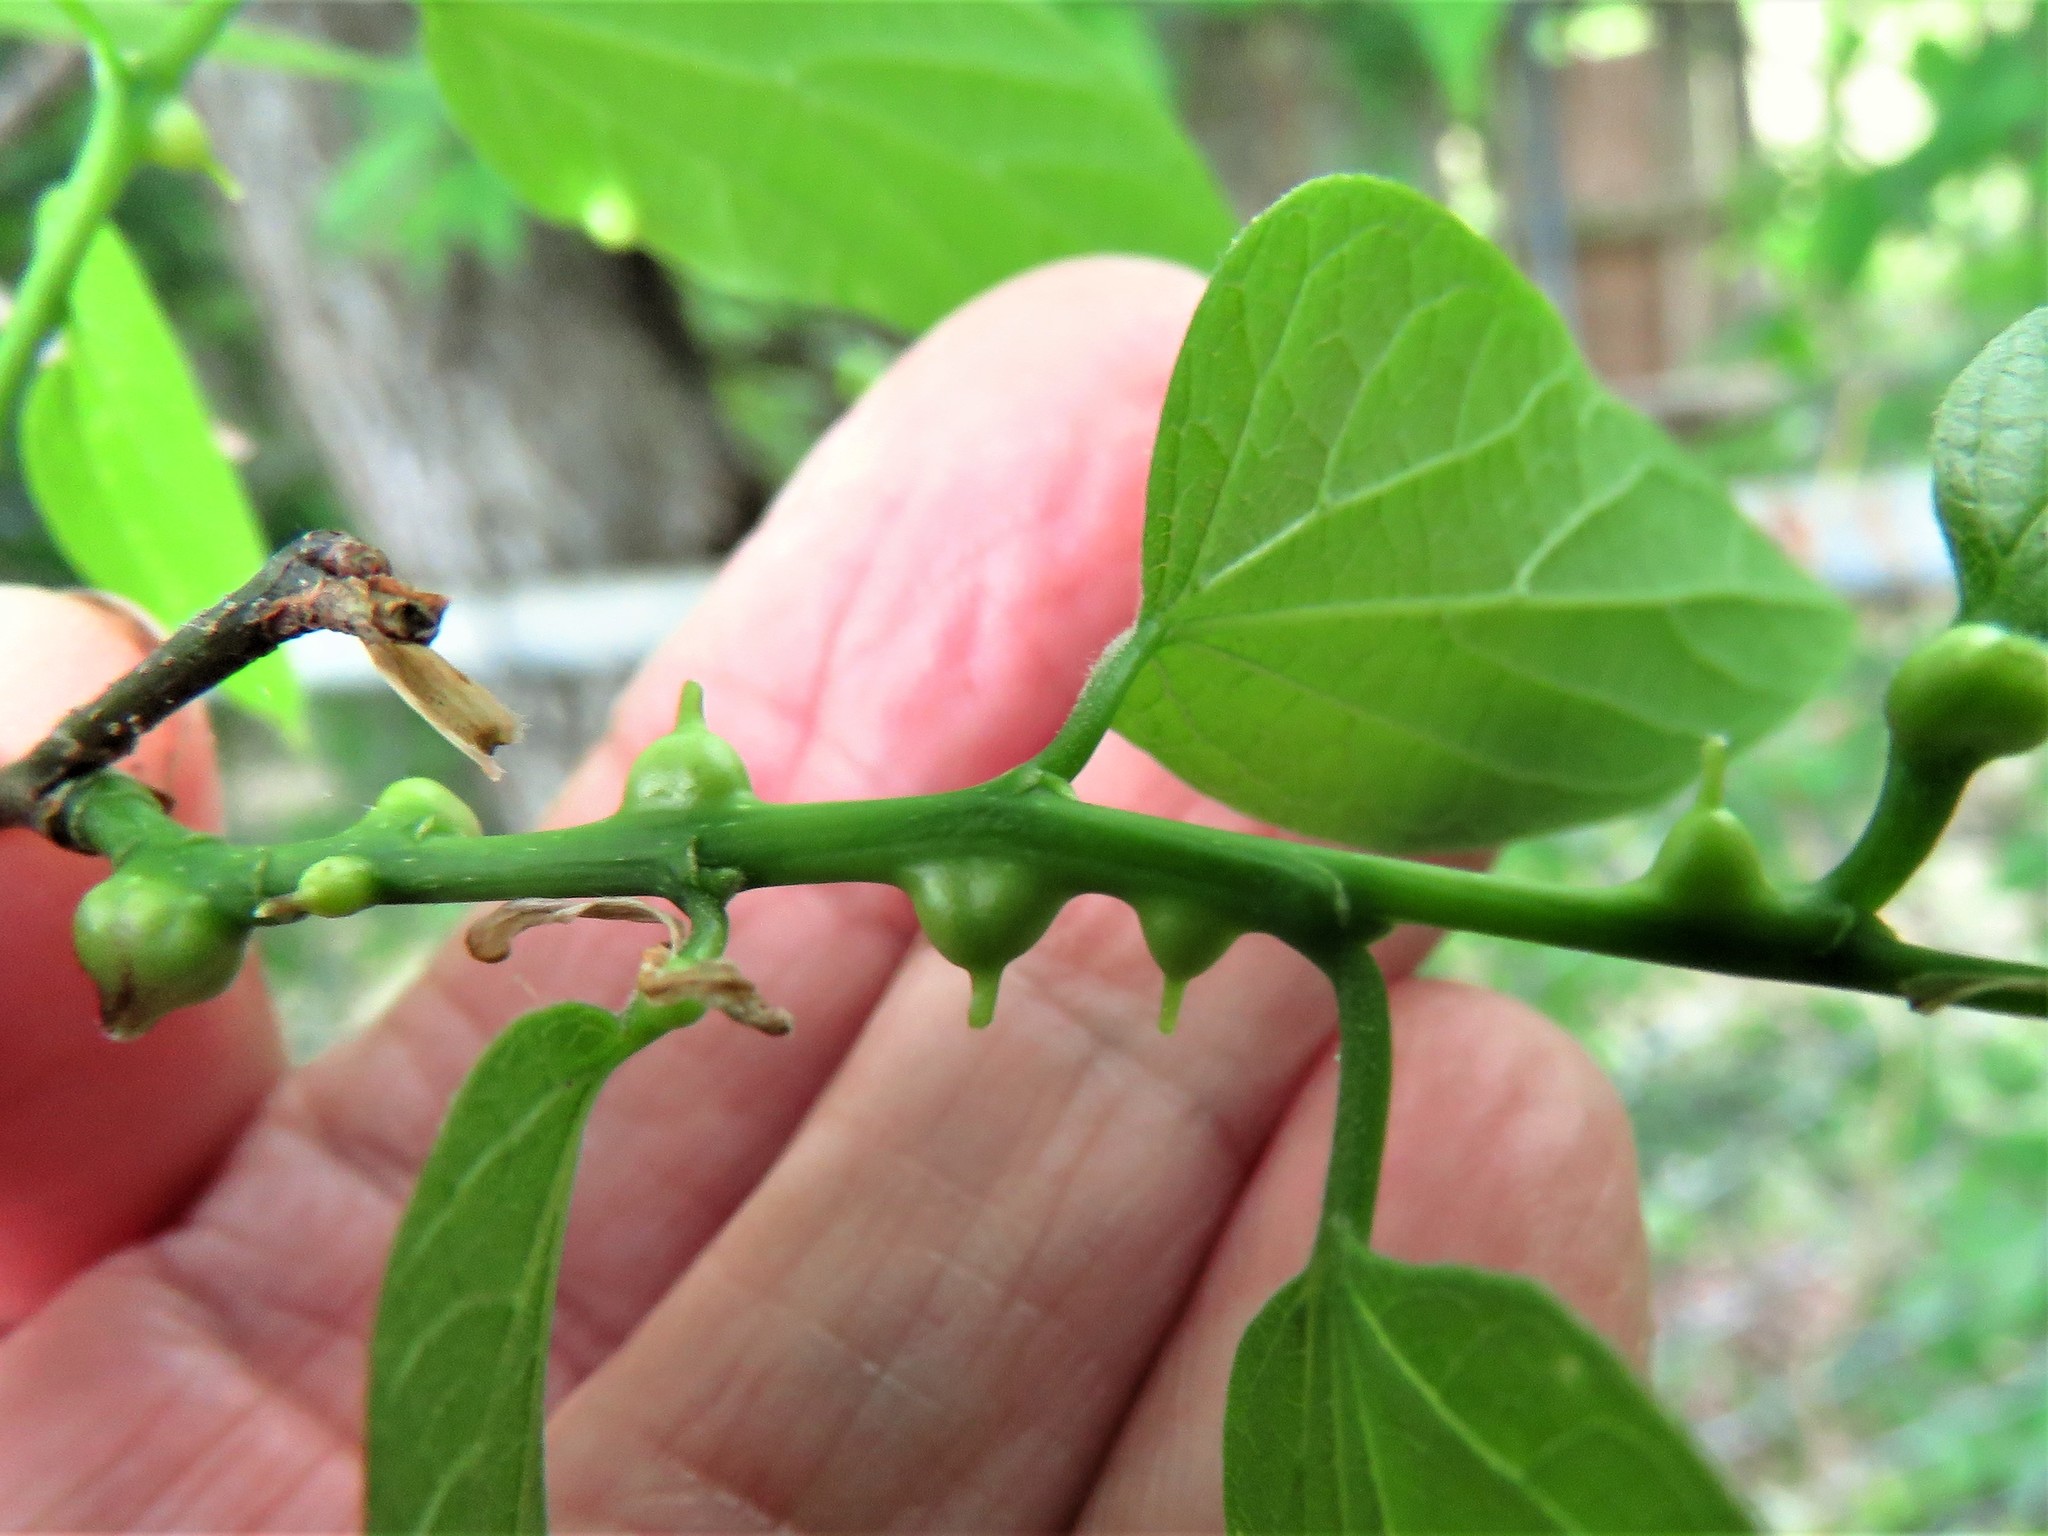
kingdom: Animalia
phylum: Arthropoda
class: Insecta
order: Diptera
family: Cecidomyiidae
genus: Celticecis
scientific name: Celticecis expulsa
